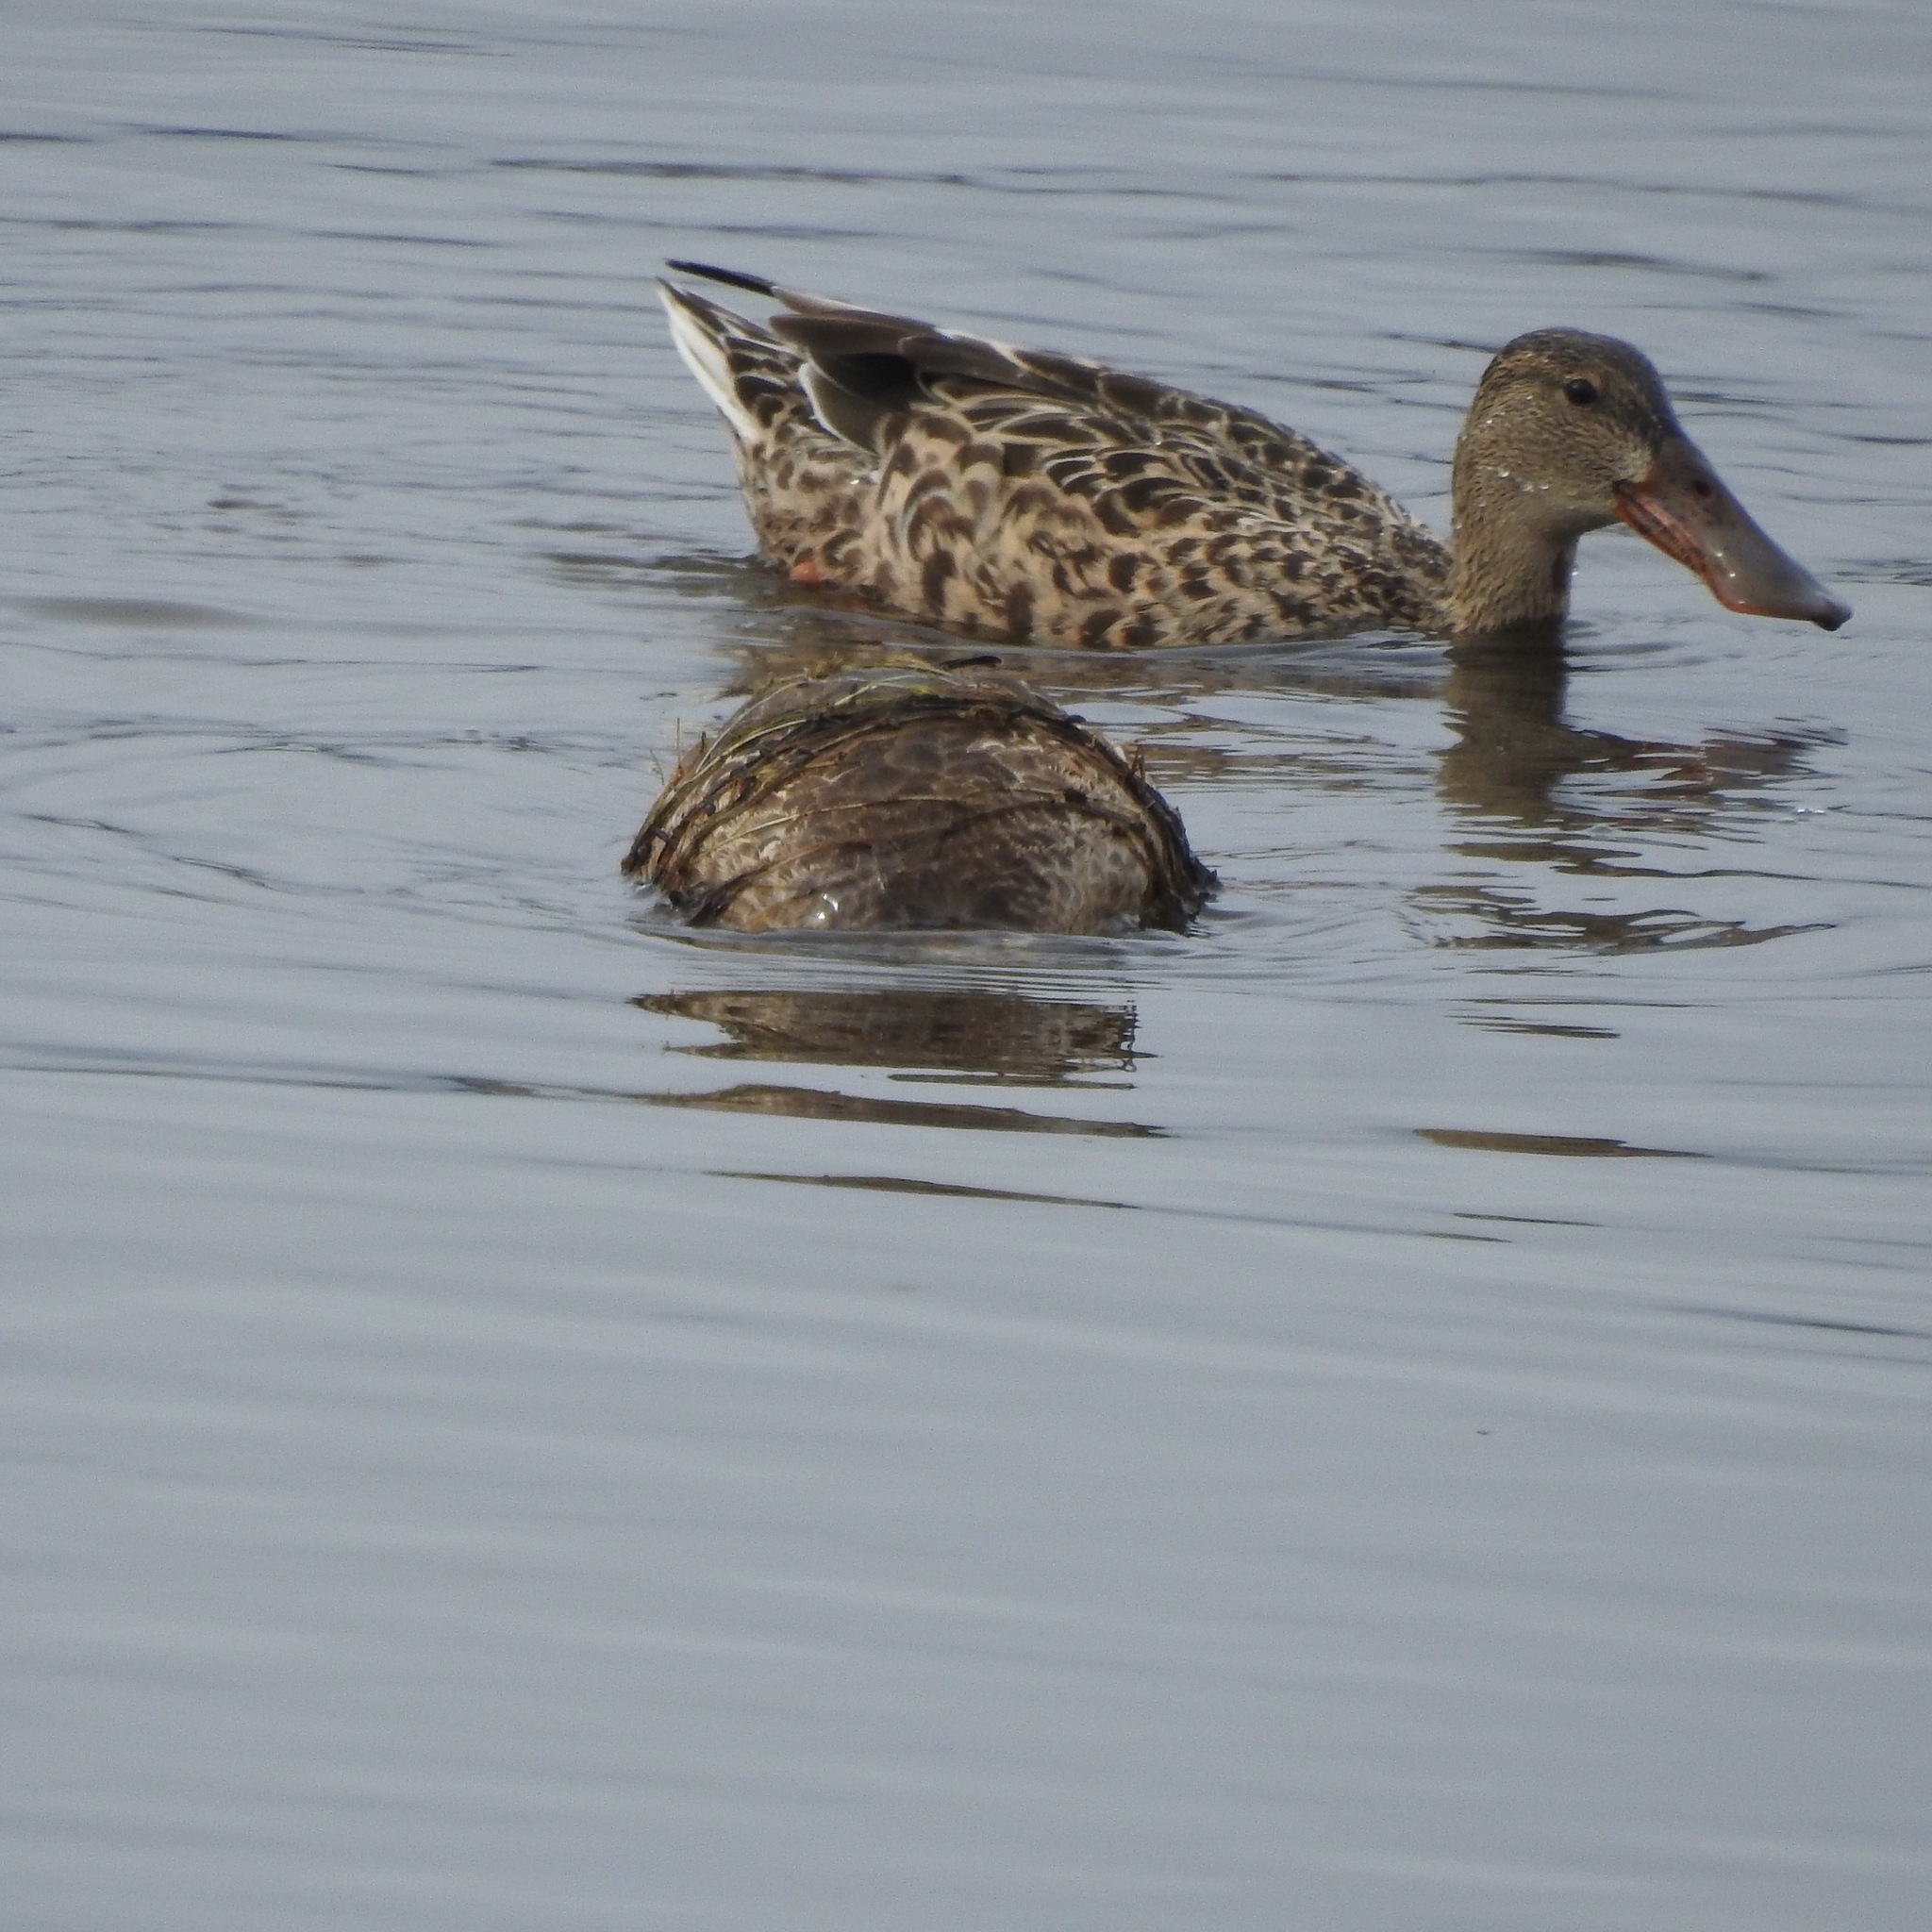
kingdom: Animalia
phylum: Chordata
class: Aves
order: Anseriformes
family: Anatidae
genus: Spatula
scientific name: Spatula clypeata
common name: Northern shoveler
